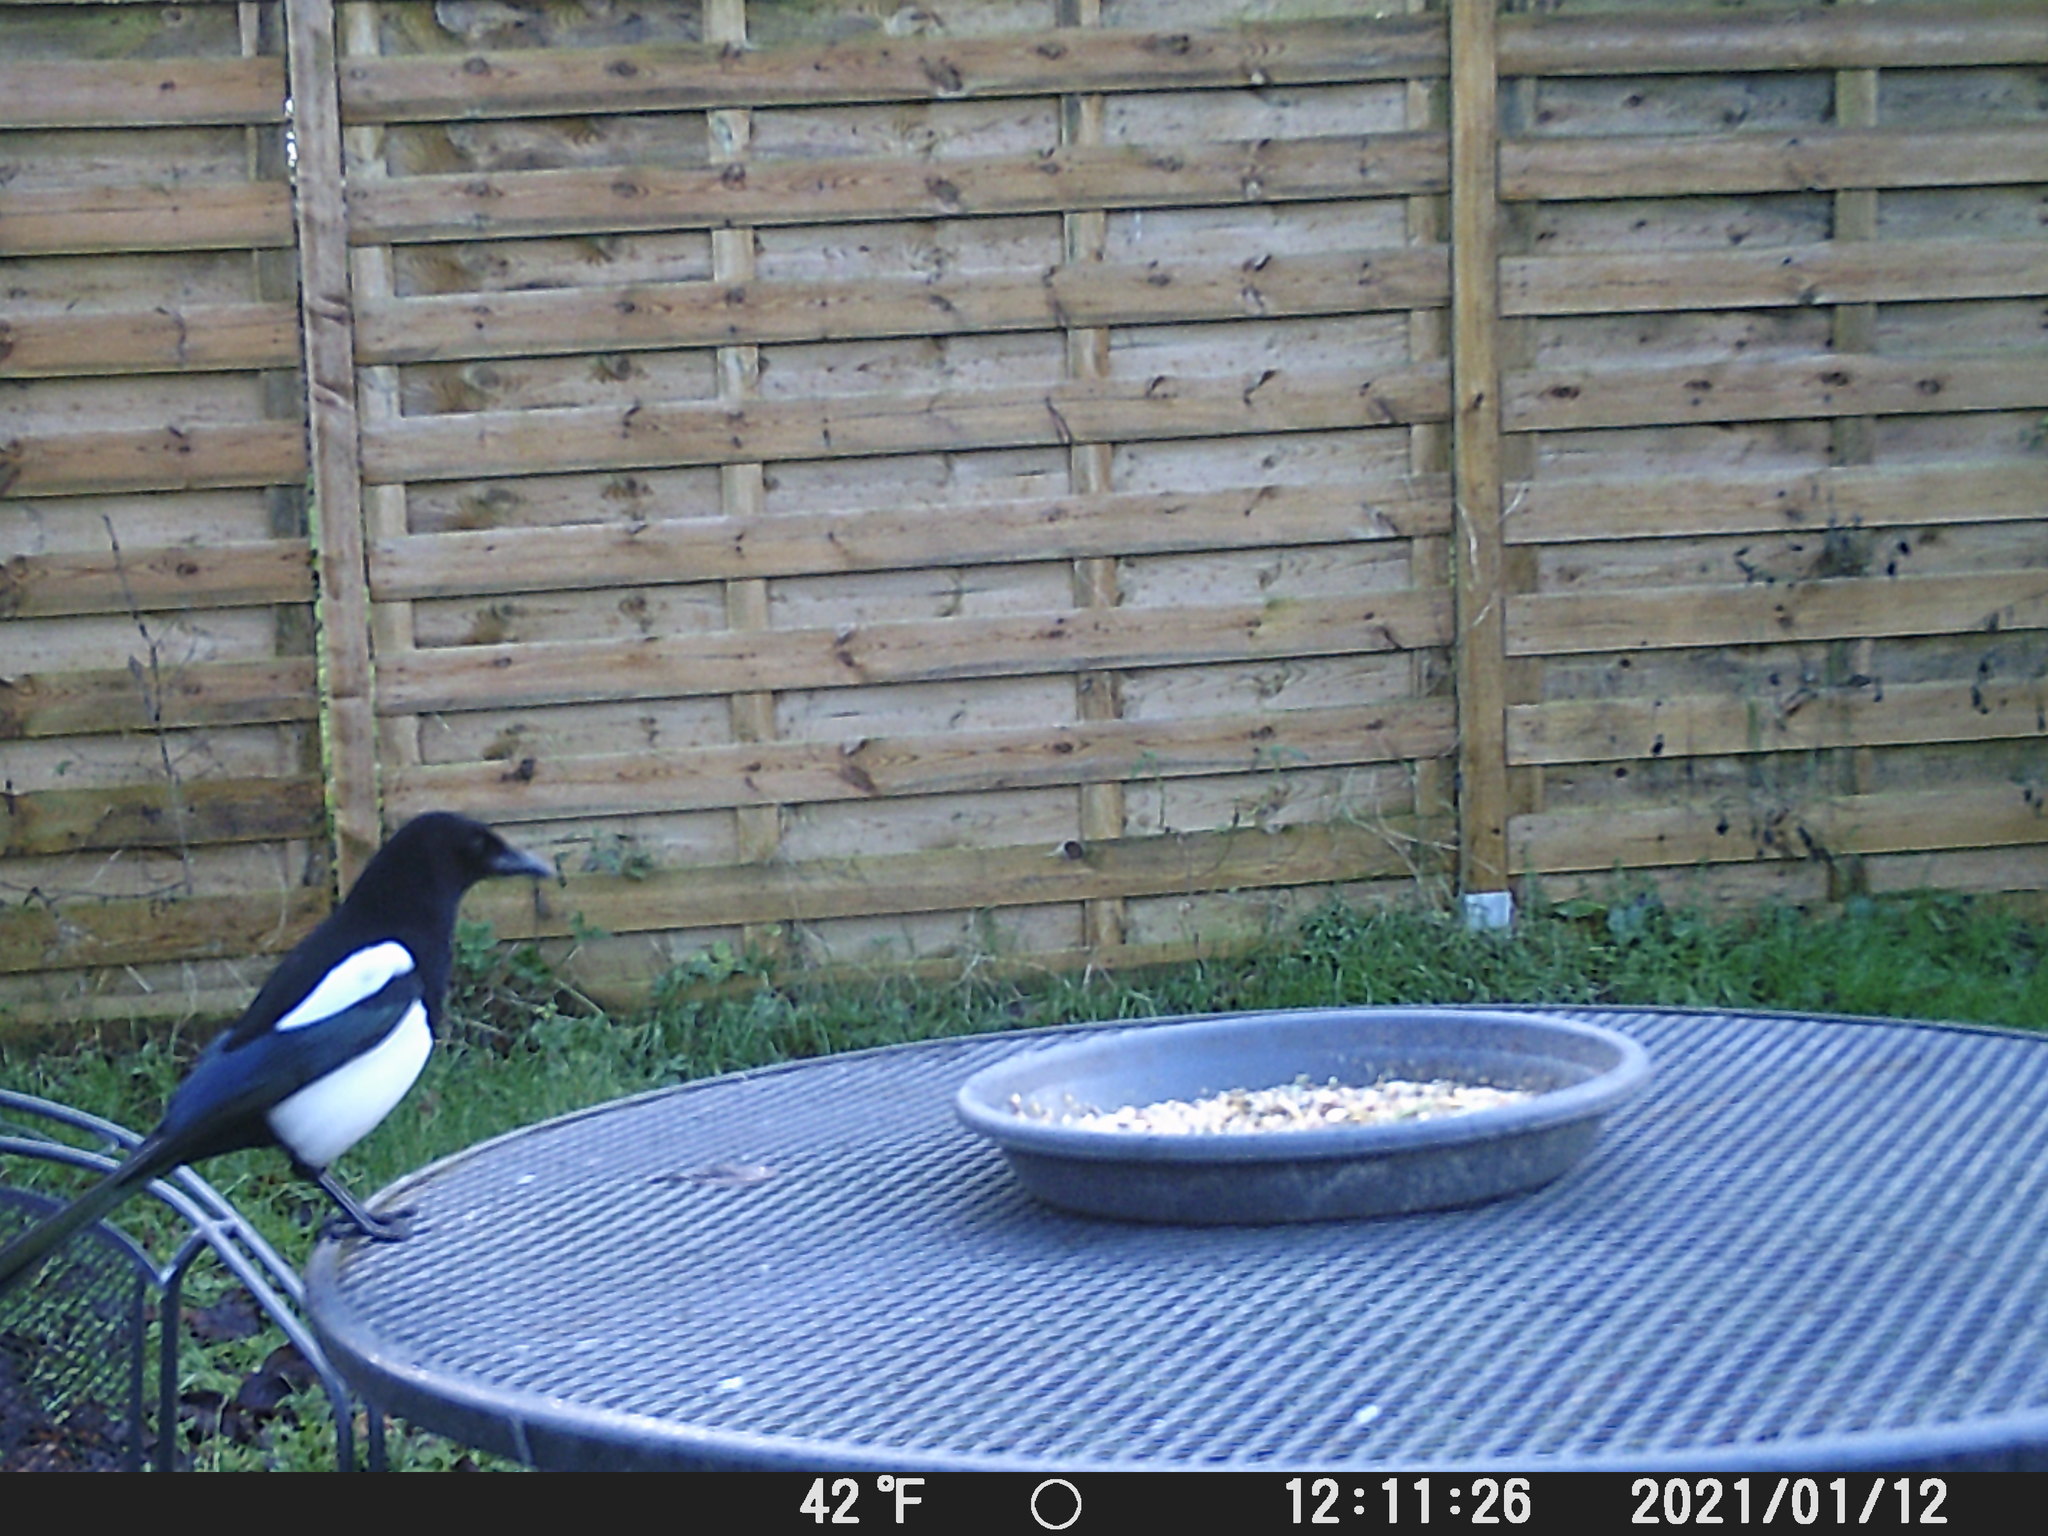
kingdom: Animalia
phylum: Chordata
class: Aves
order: Passeriformes
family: Corvidae
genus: Pica
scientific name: Pica pica
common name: Eurasian magpie
